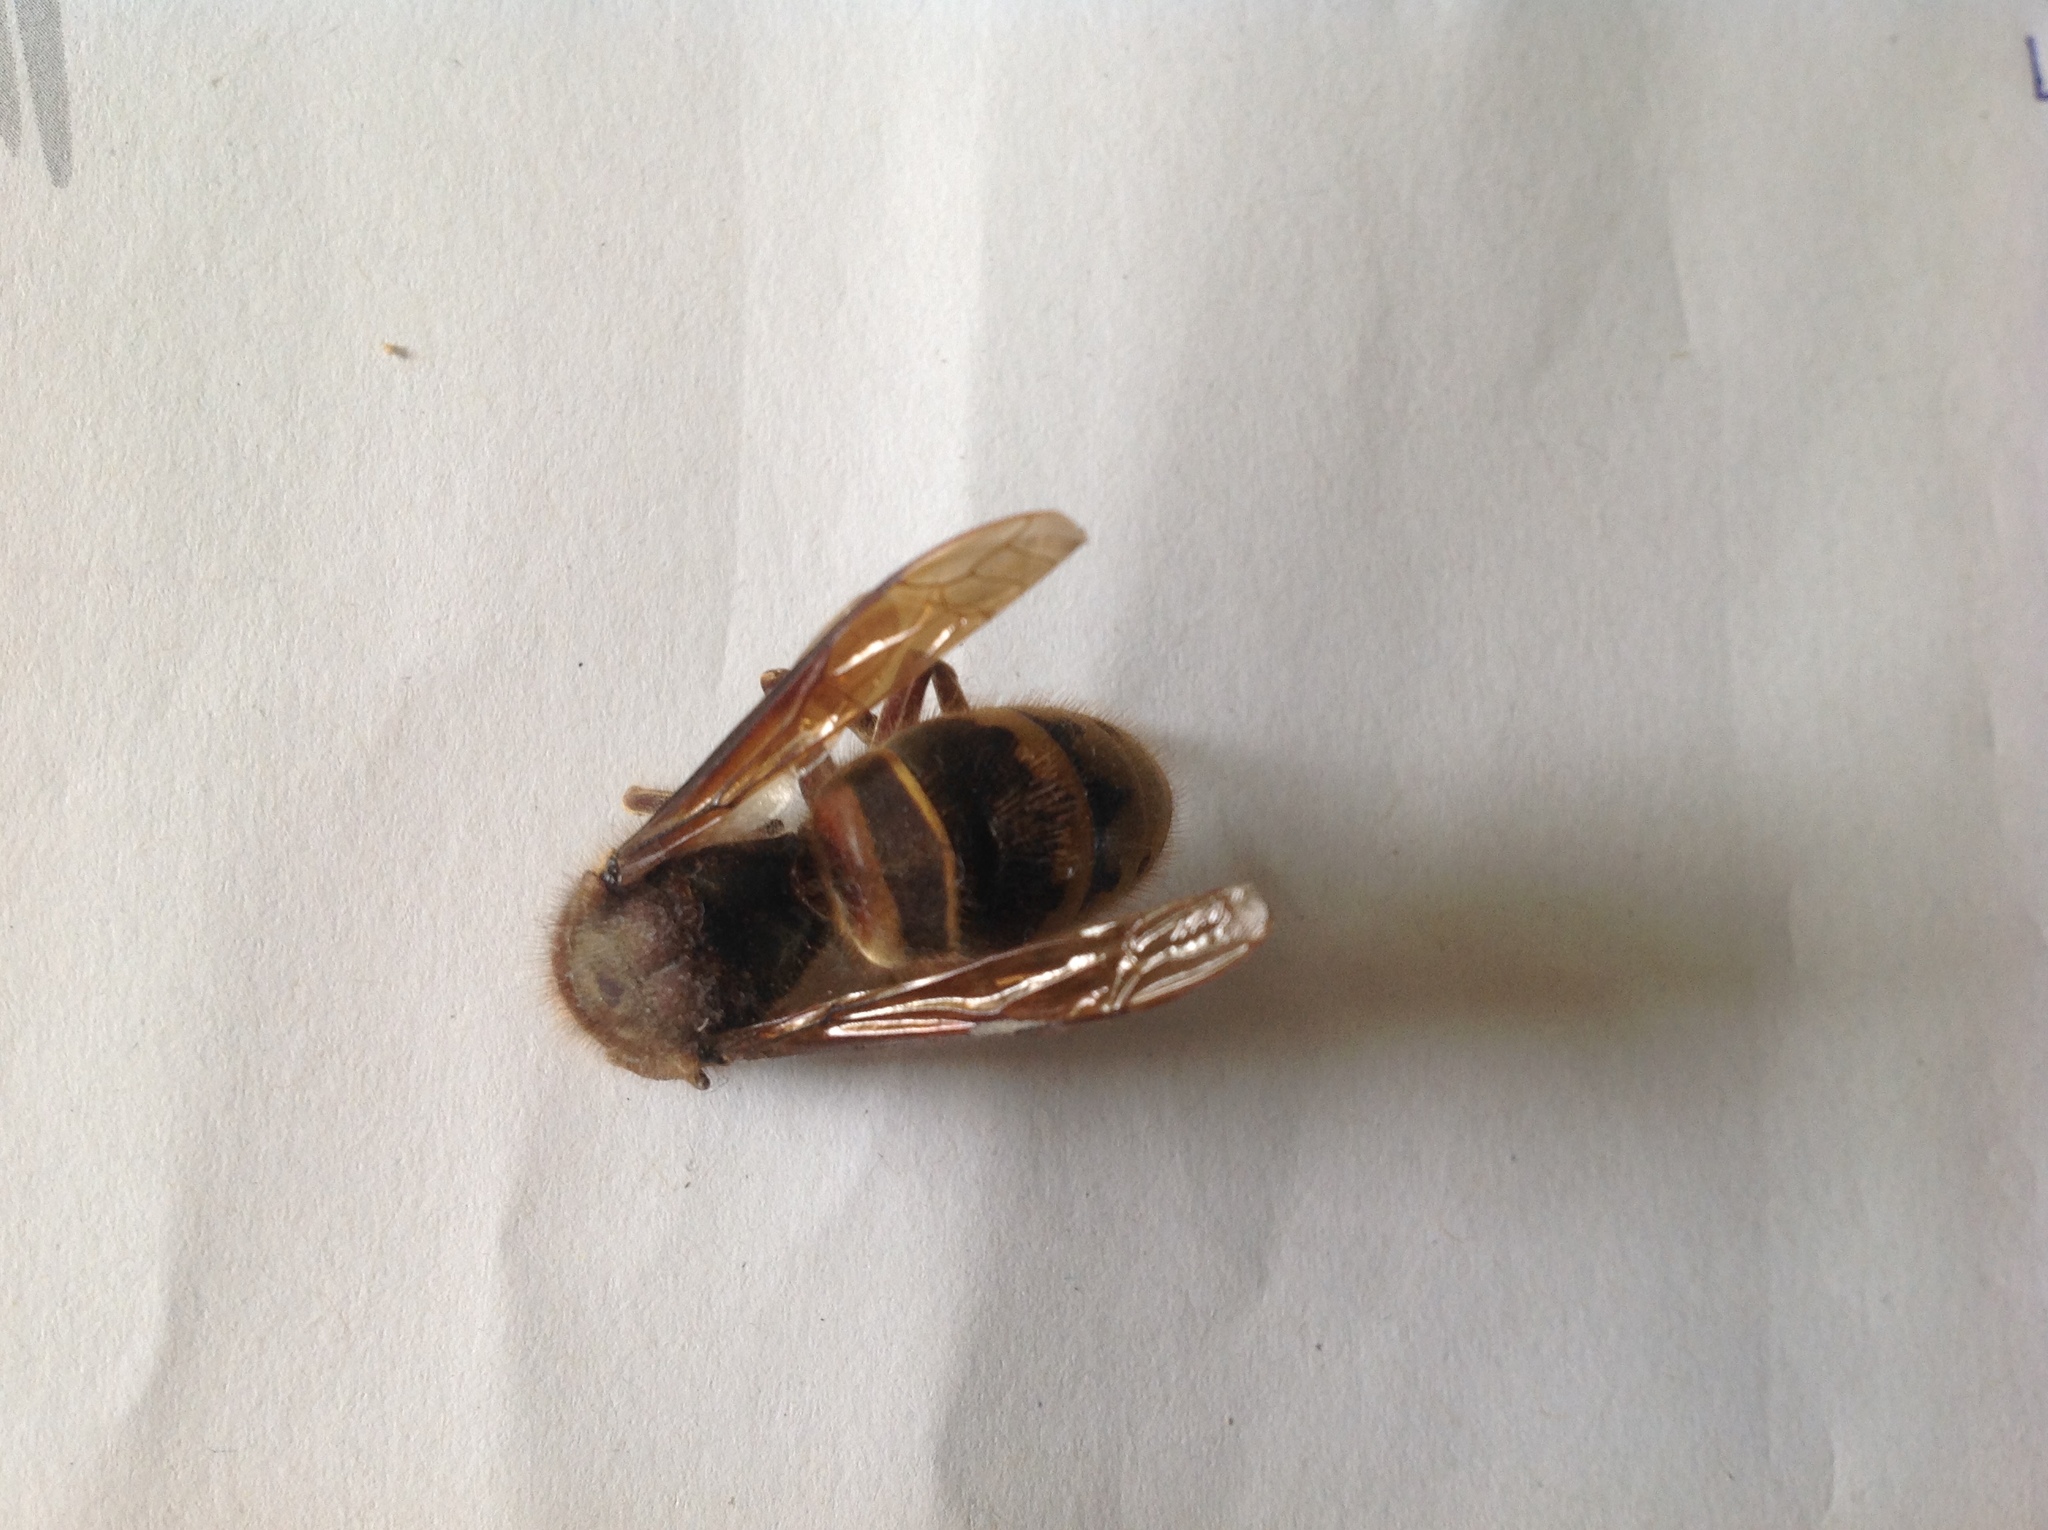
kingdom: Animalia
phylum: Arthropoda
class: Insecta
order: Hymenoptera
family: Vespidae
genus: Vespa
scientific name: Vespa crabro
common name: Hornet
